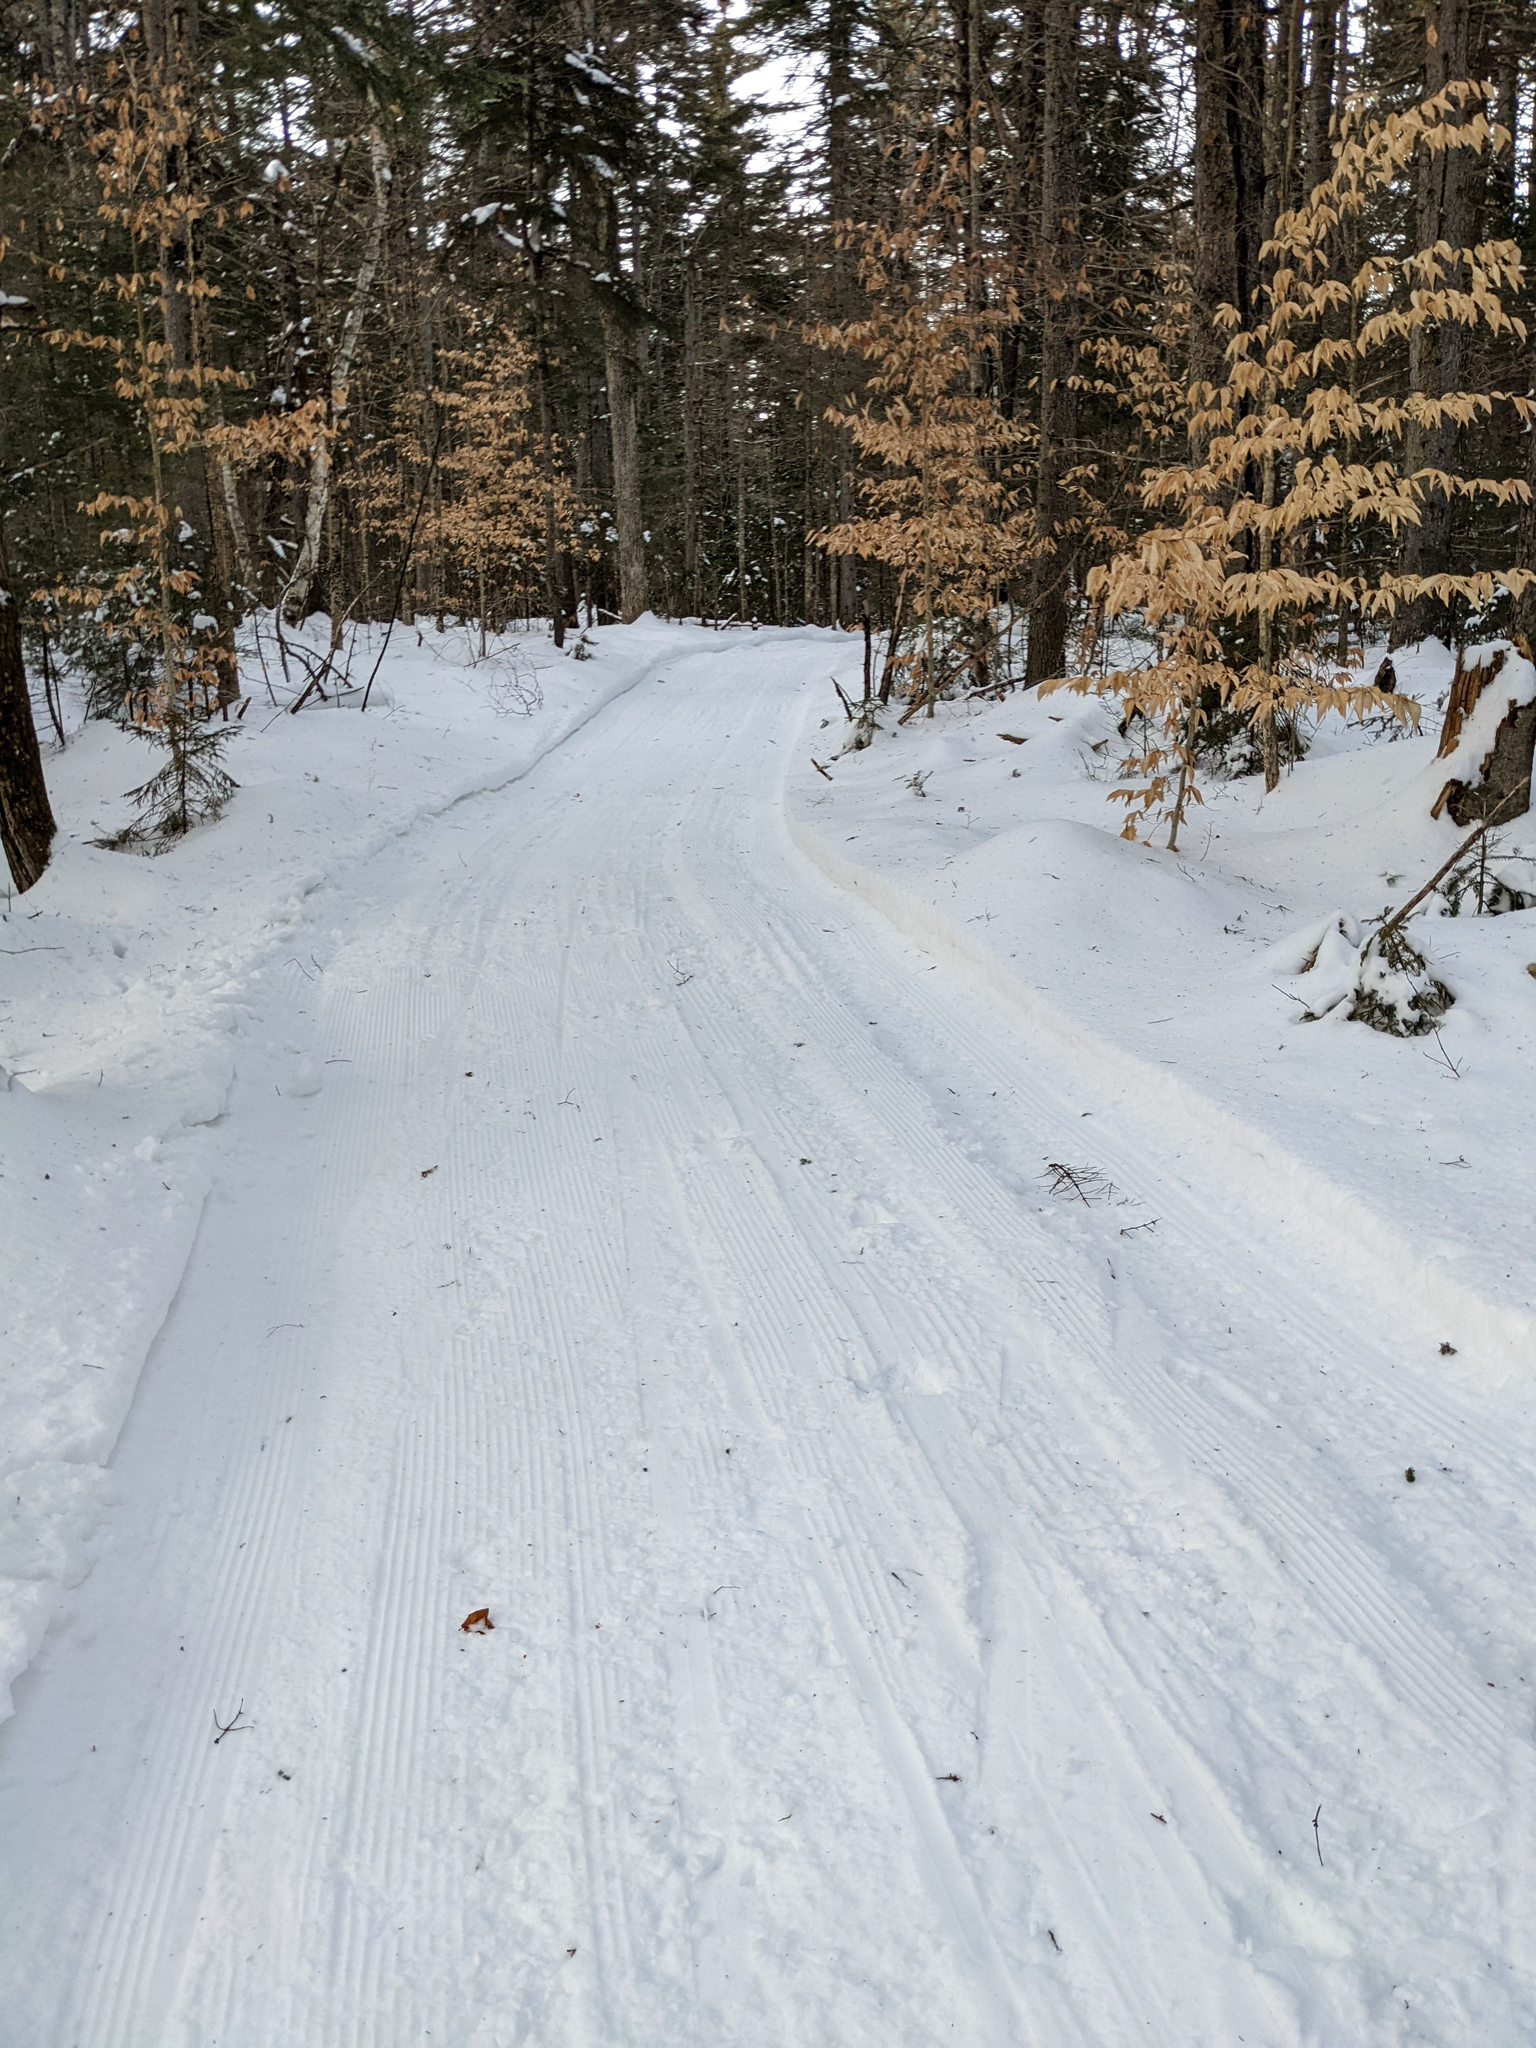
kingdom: Plantae
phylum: Tracheophyta
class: Magnoliopsida
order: Fagales
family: Fagaceae
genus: Fagus
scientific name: Fagus grandifolia
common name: American beech
